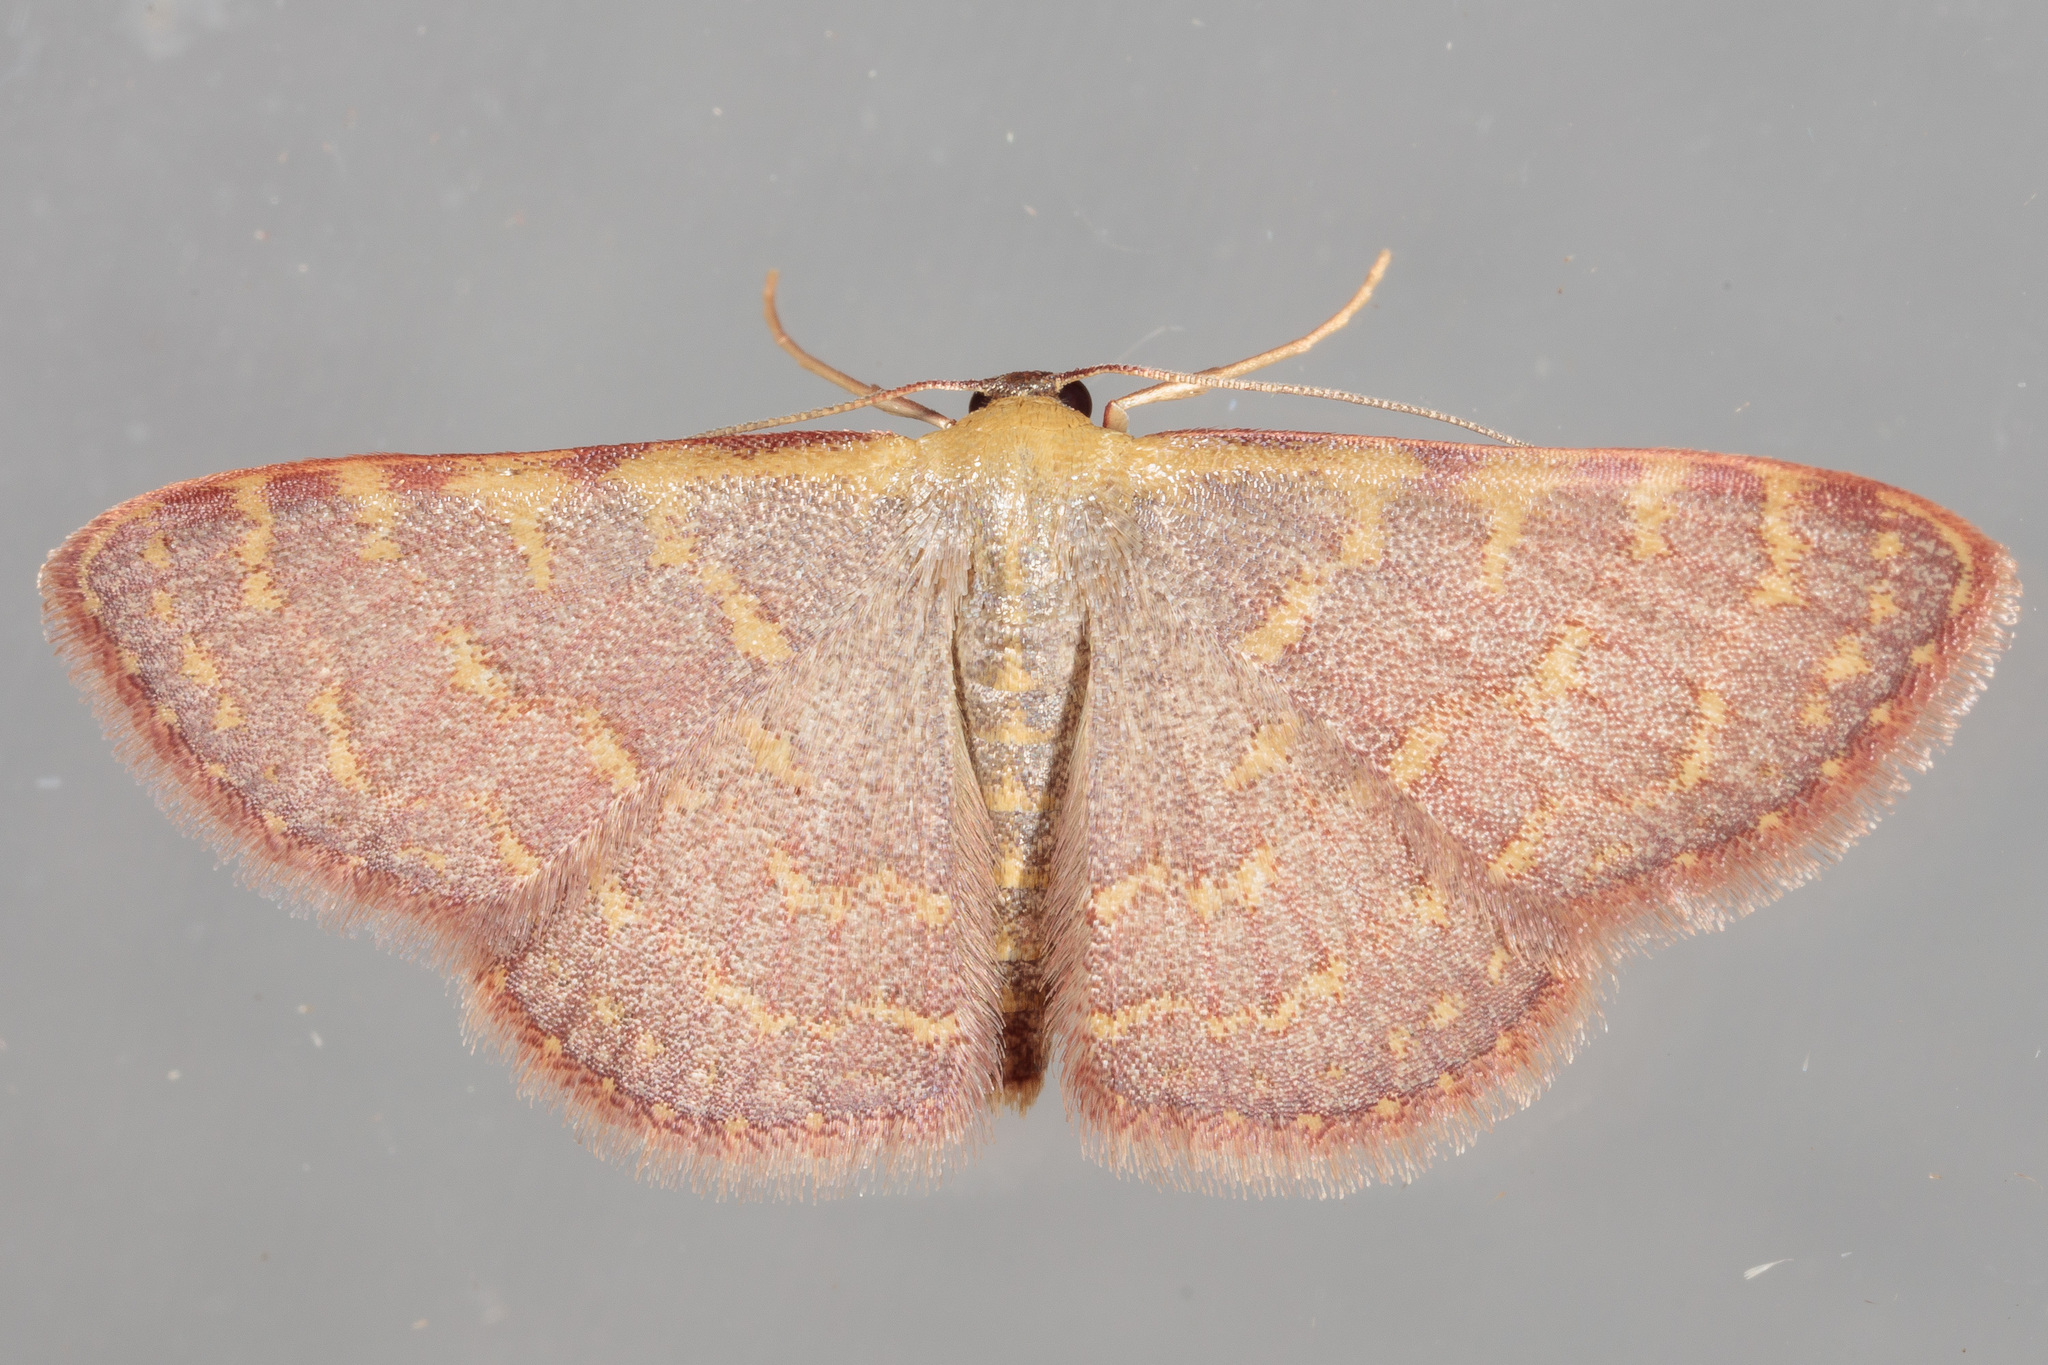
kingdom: Animalia
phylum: Arthropoda
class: Insecta
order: Lepidoptera
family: Geometridae
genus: Leptostales
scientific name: Leptostales pannaria
